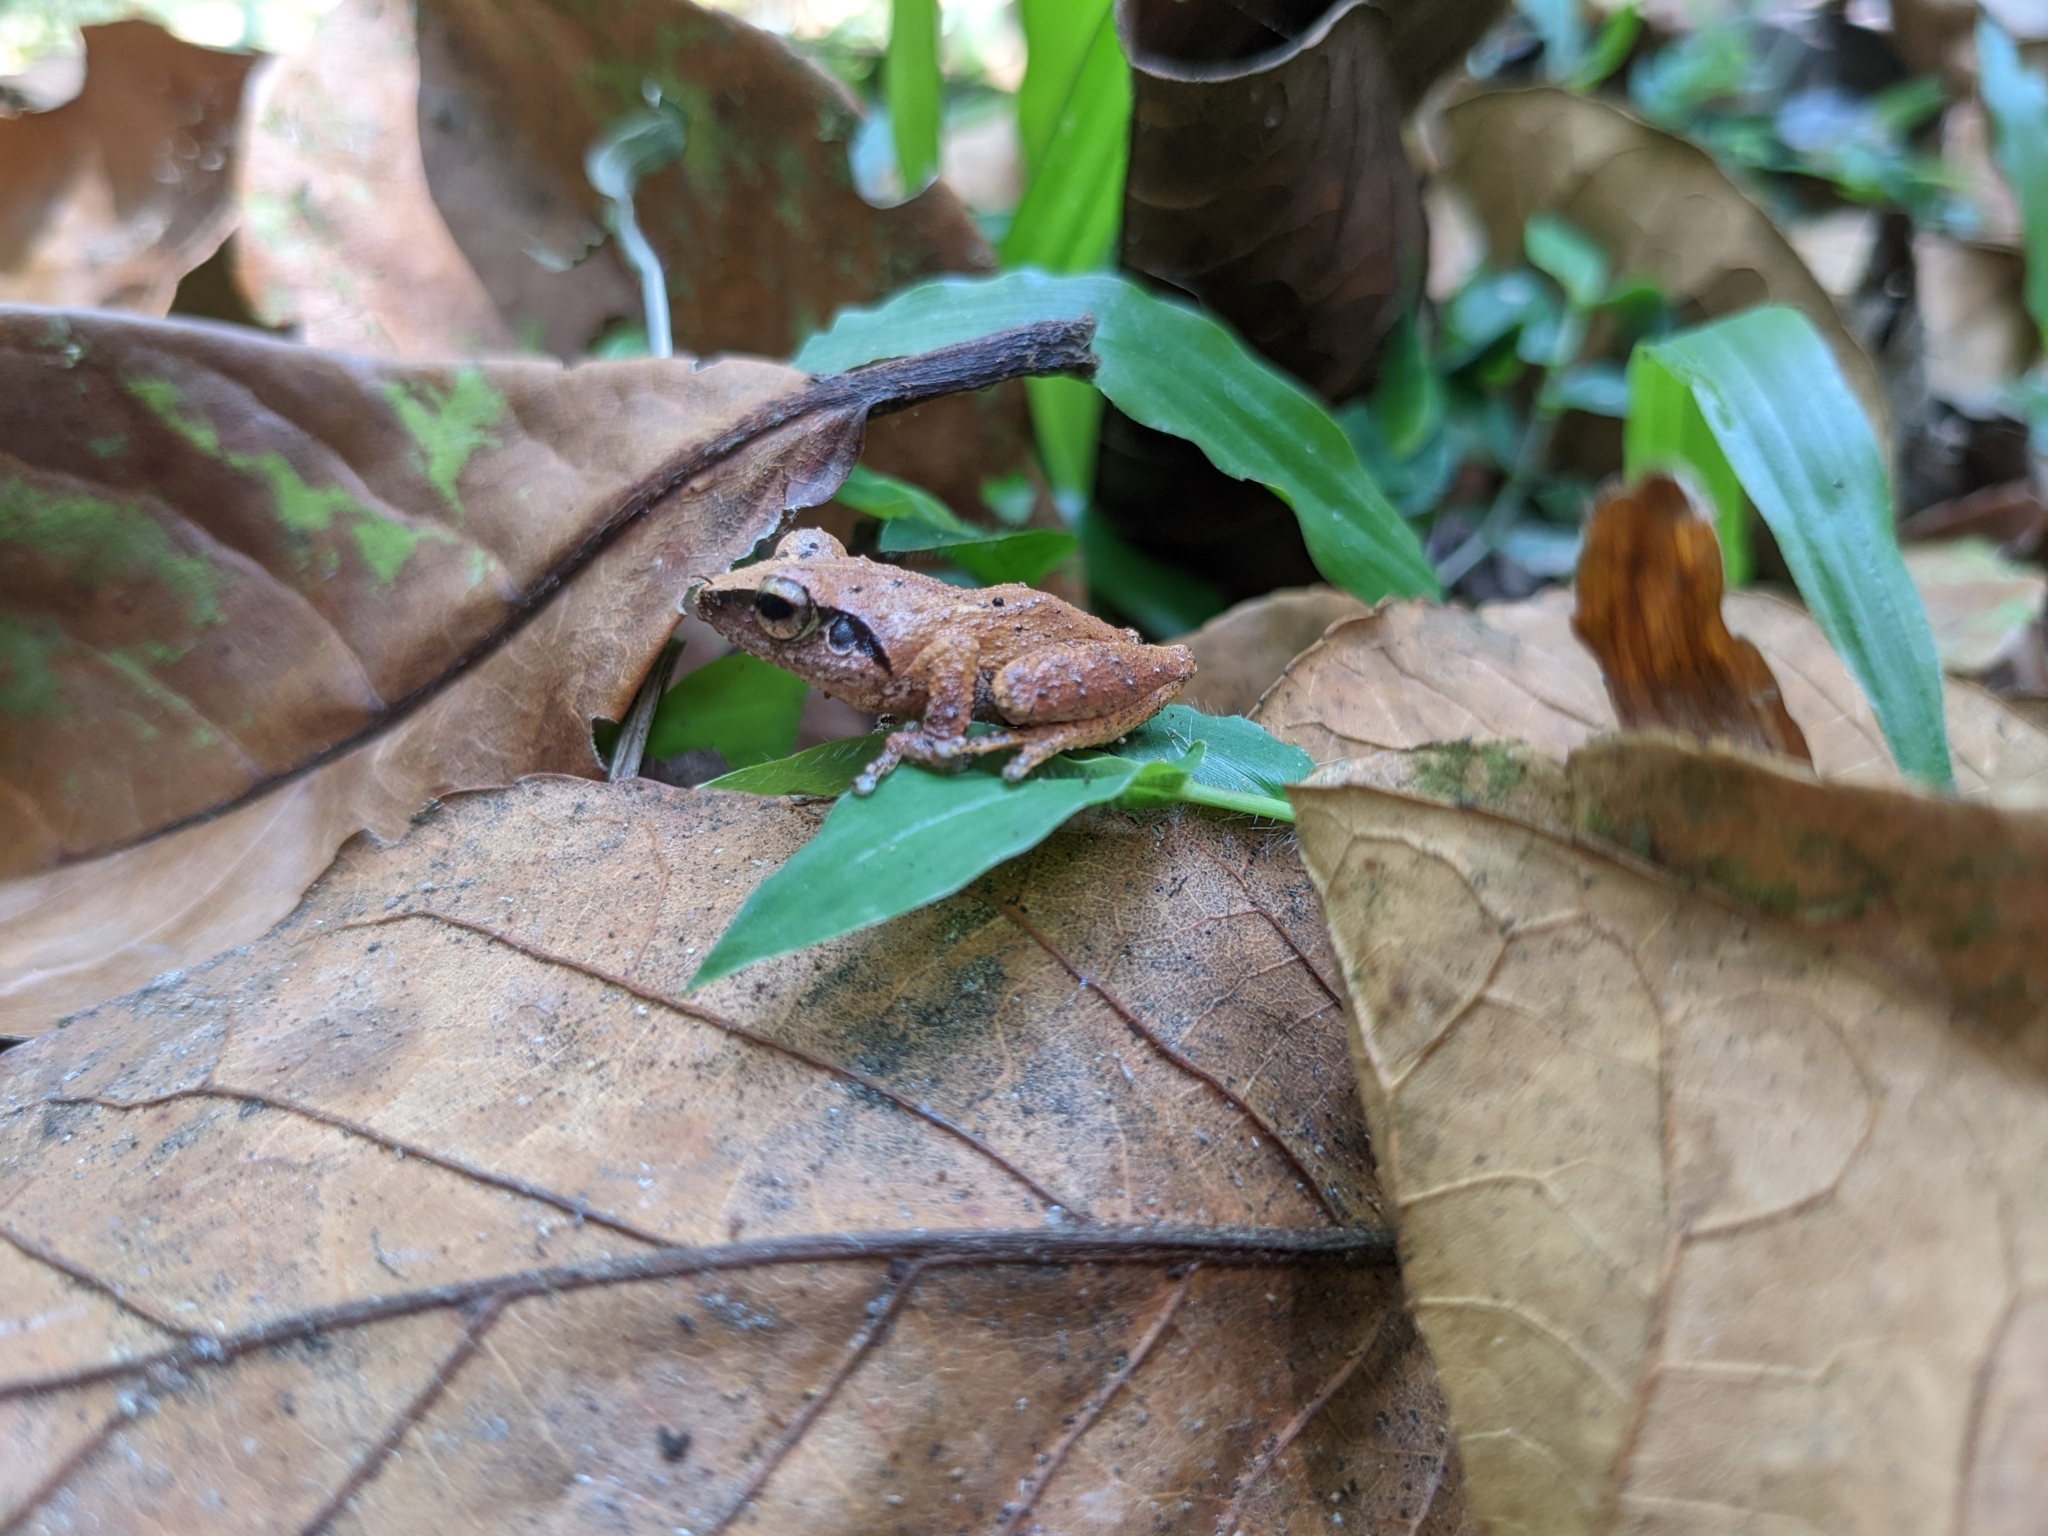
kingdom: Animalia
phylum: Chordata
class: Amphibia
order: Anura
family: Rhacophoridae
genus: Pseudophilautus
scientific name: Pseudophilautus wynaadensis
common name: Dark-eared bush frog
